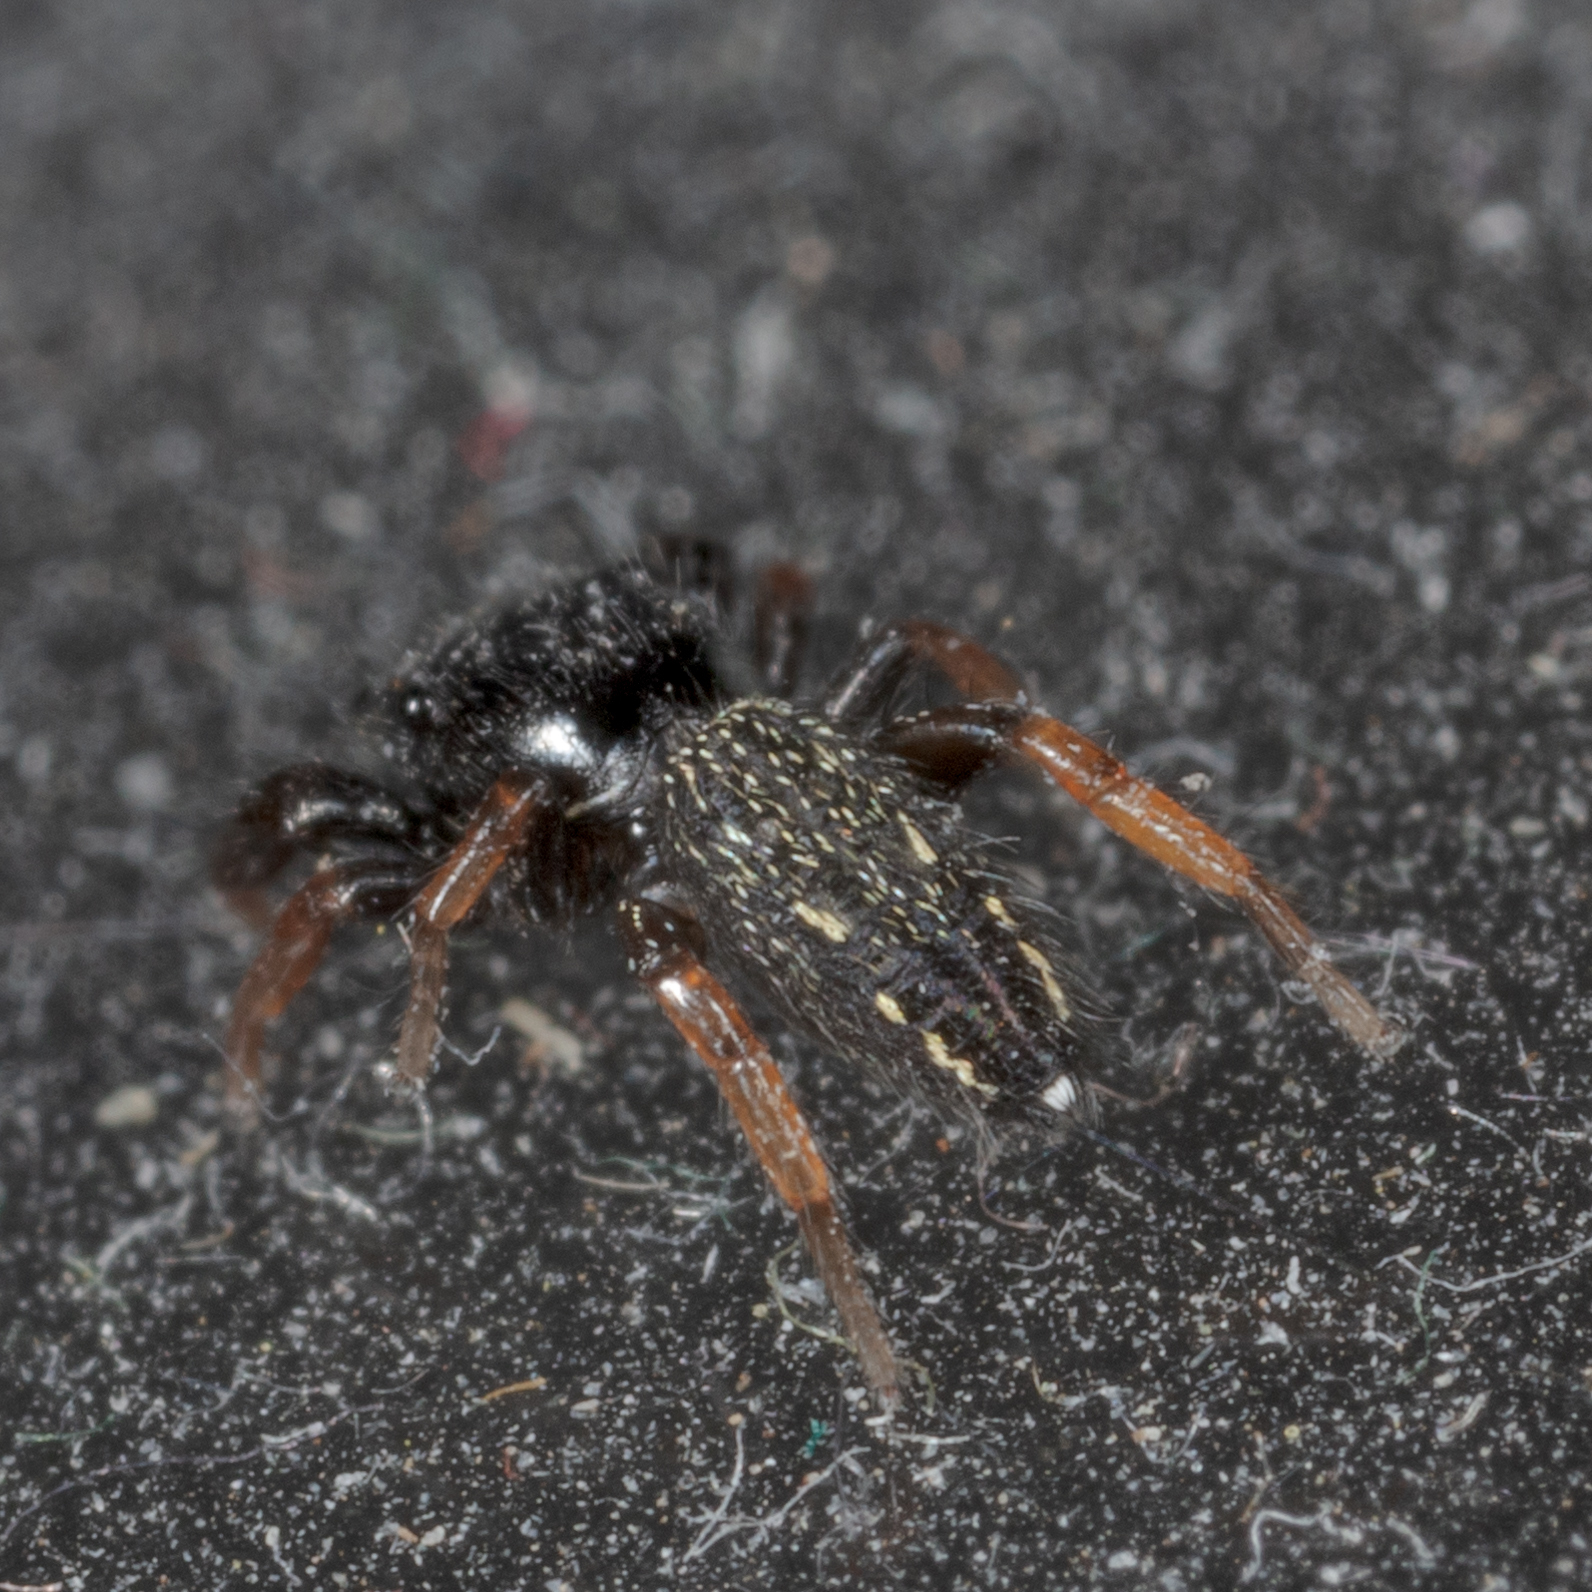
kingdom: Animalia
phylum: Arthropoda
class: Arachnida
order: Araneae
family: Salticidae
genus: Metacyrba
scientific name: Metacyrba taeniola
